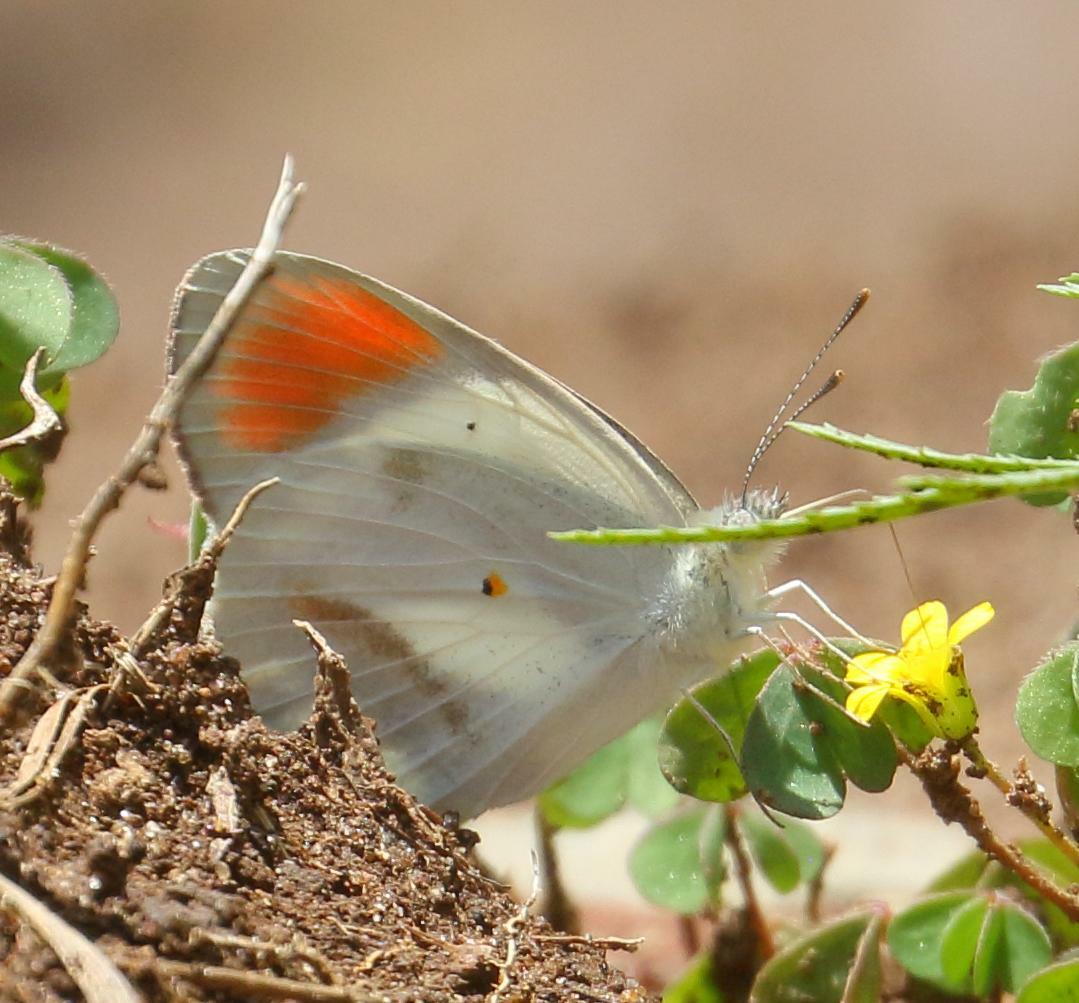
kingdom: Animalia
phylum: Arthropoda
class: Insecta
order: Lepidoptera
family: Pieridae
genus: Colotis
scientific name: Colotis euippe
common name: Round-winged orange tip
